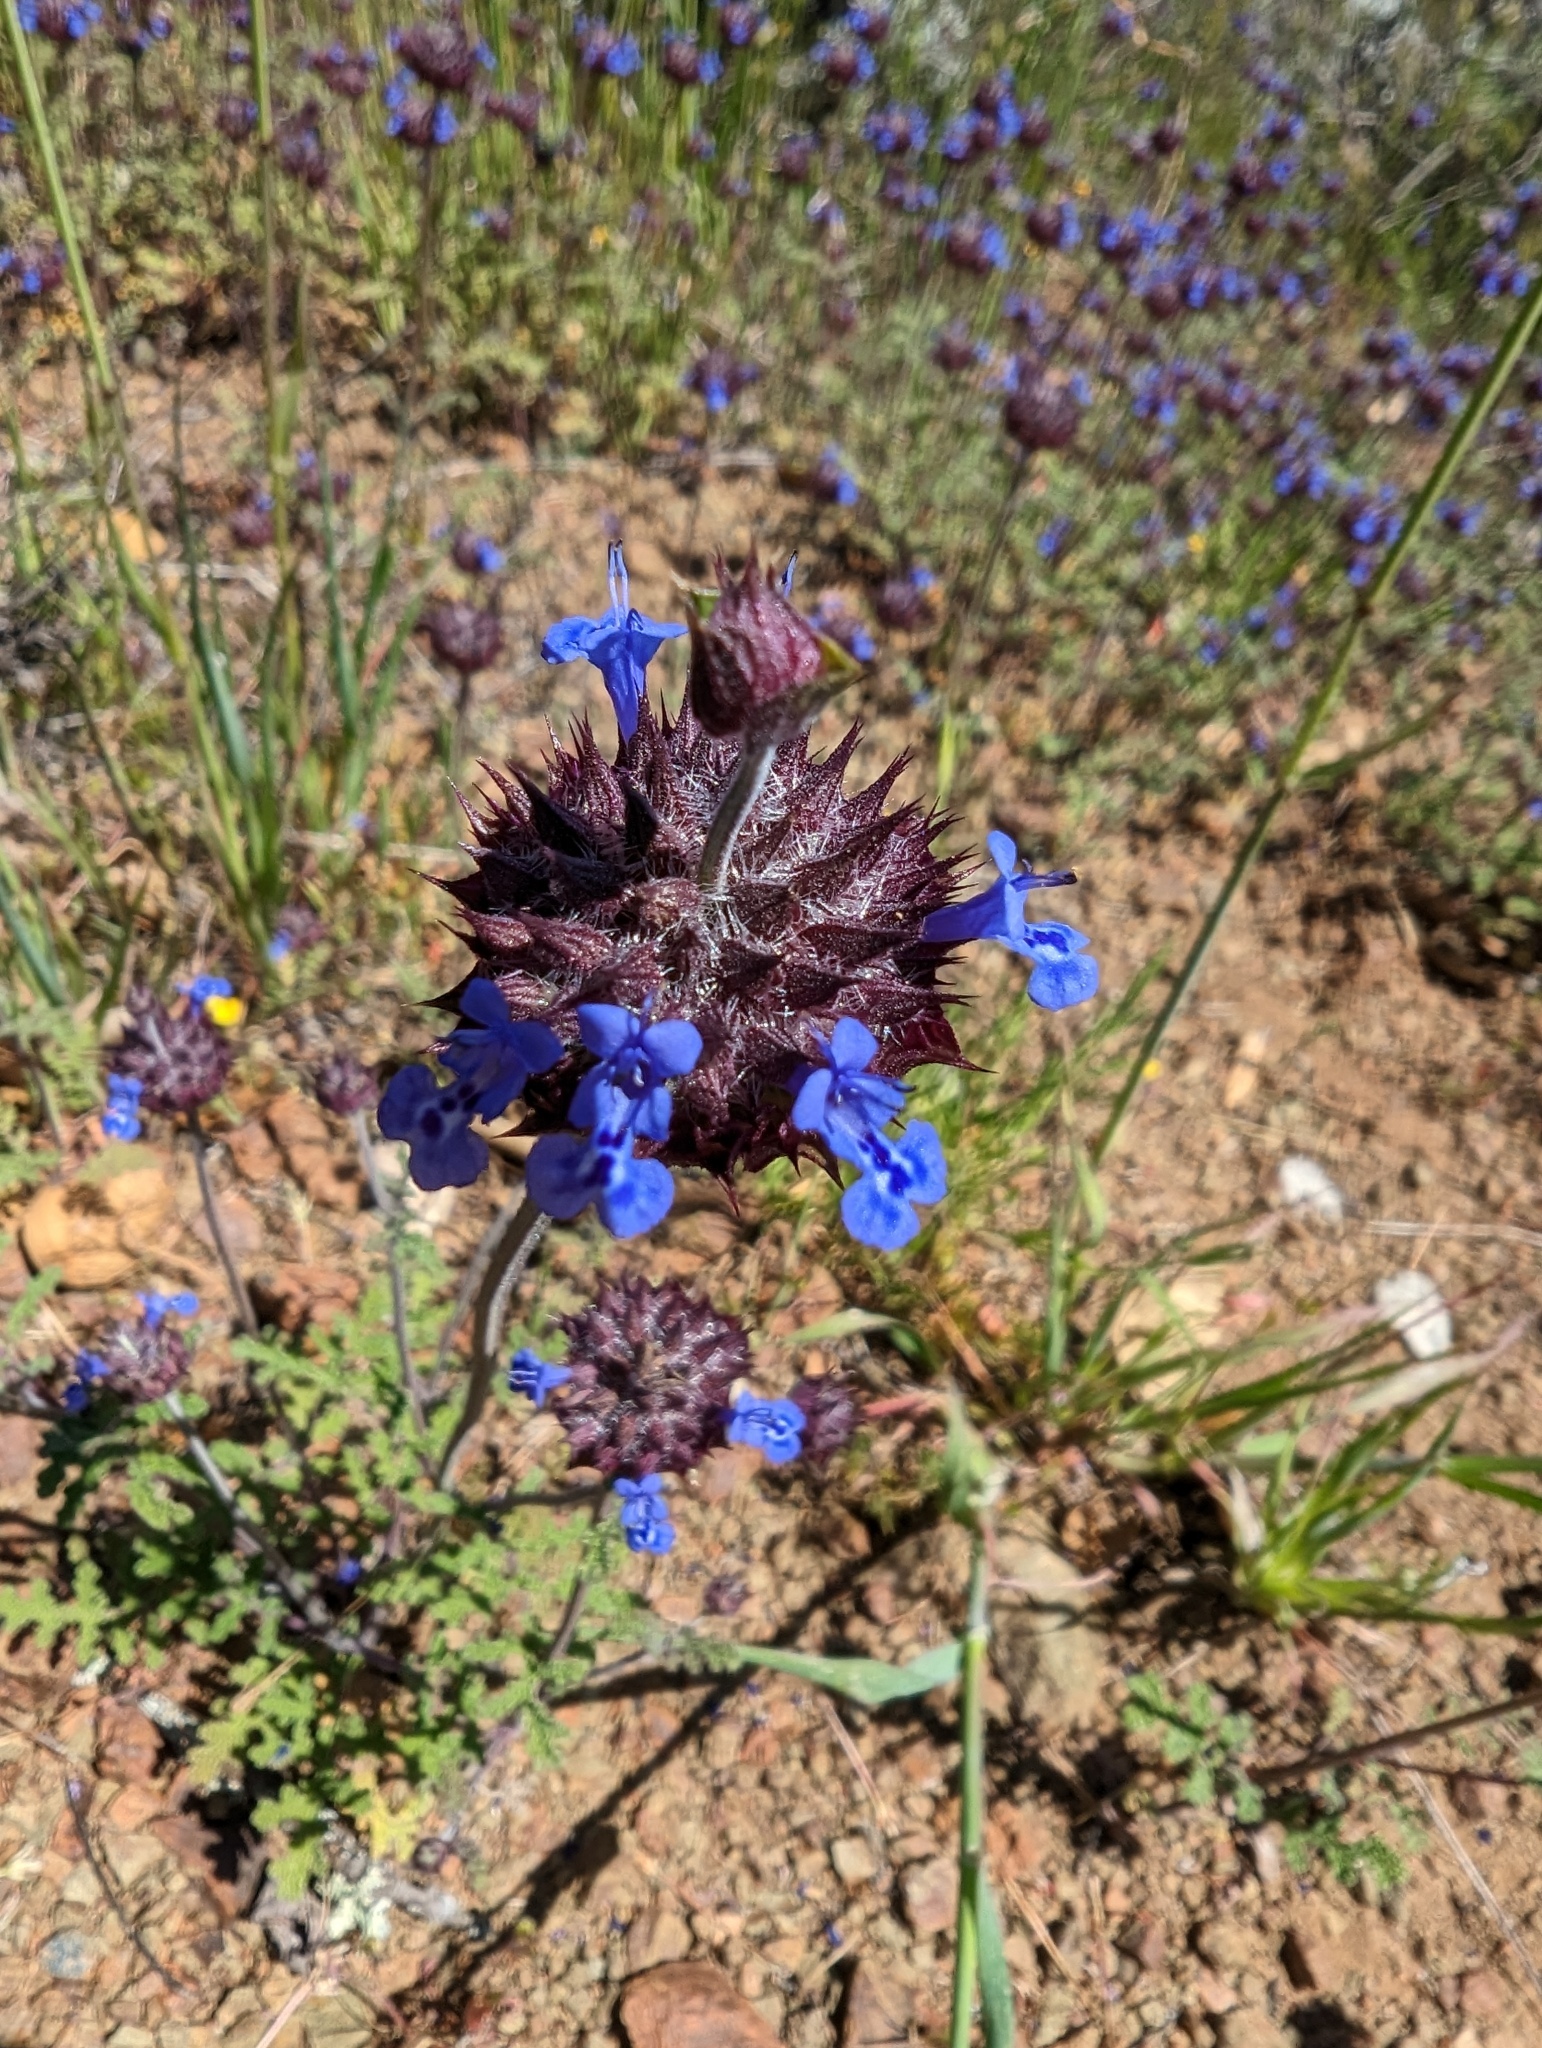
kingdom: Plantae
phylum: Tracheophyta
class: Magnoliopsida
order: Lamiales
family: Lamiaceae
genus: Salvia
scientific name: Salvia columbariae
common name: Chia
